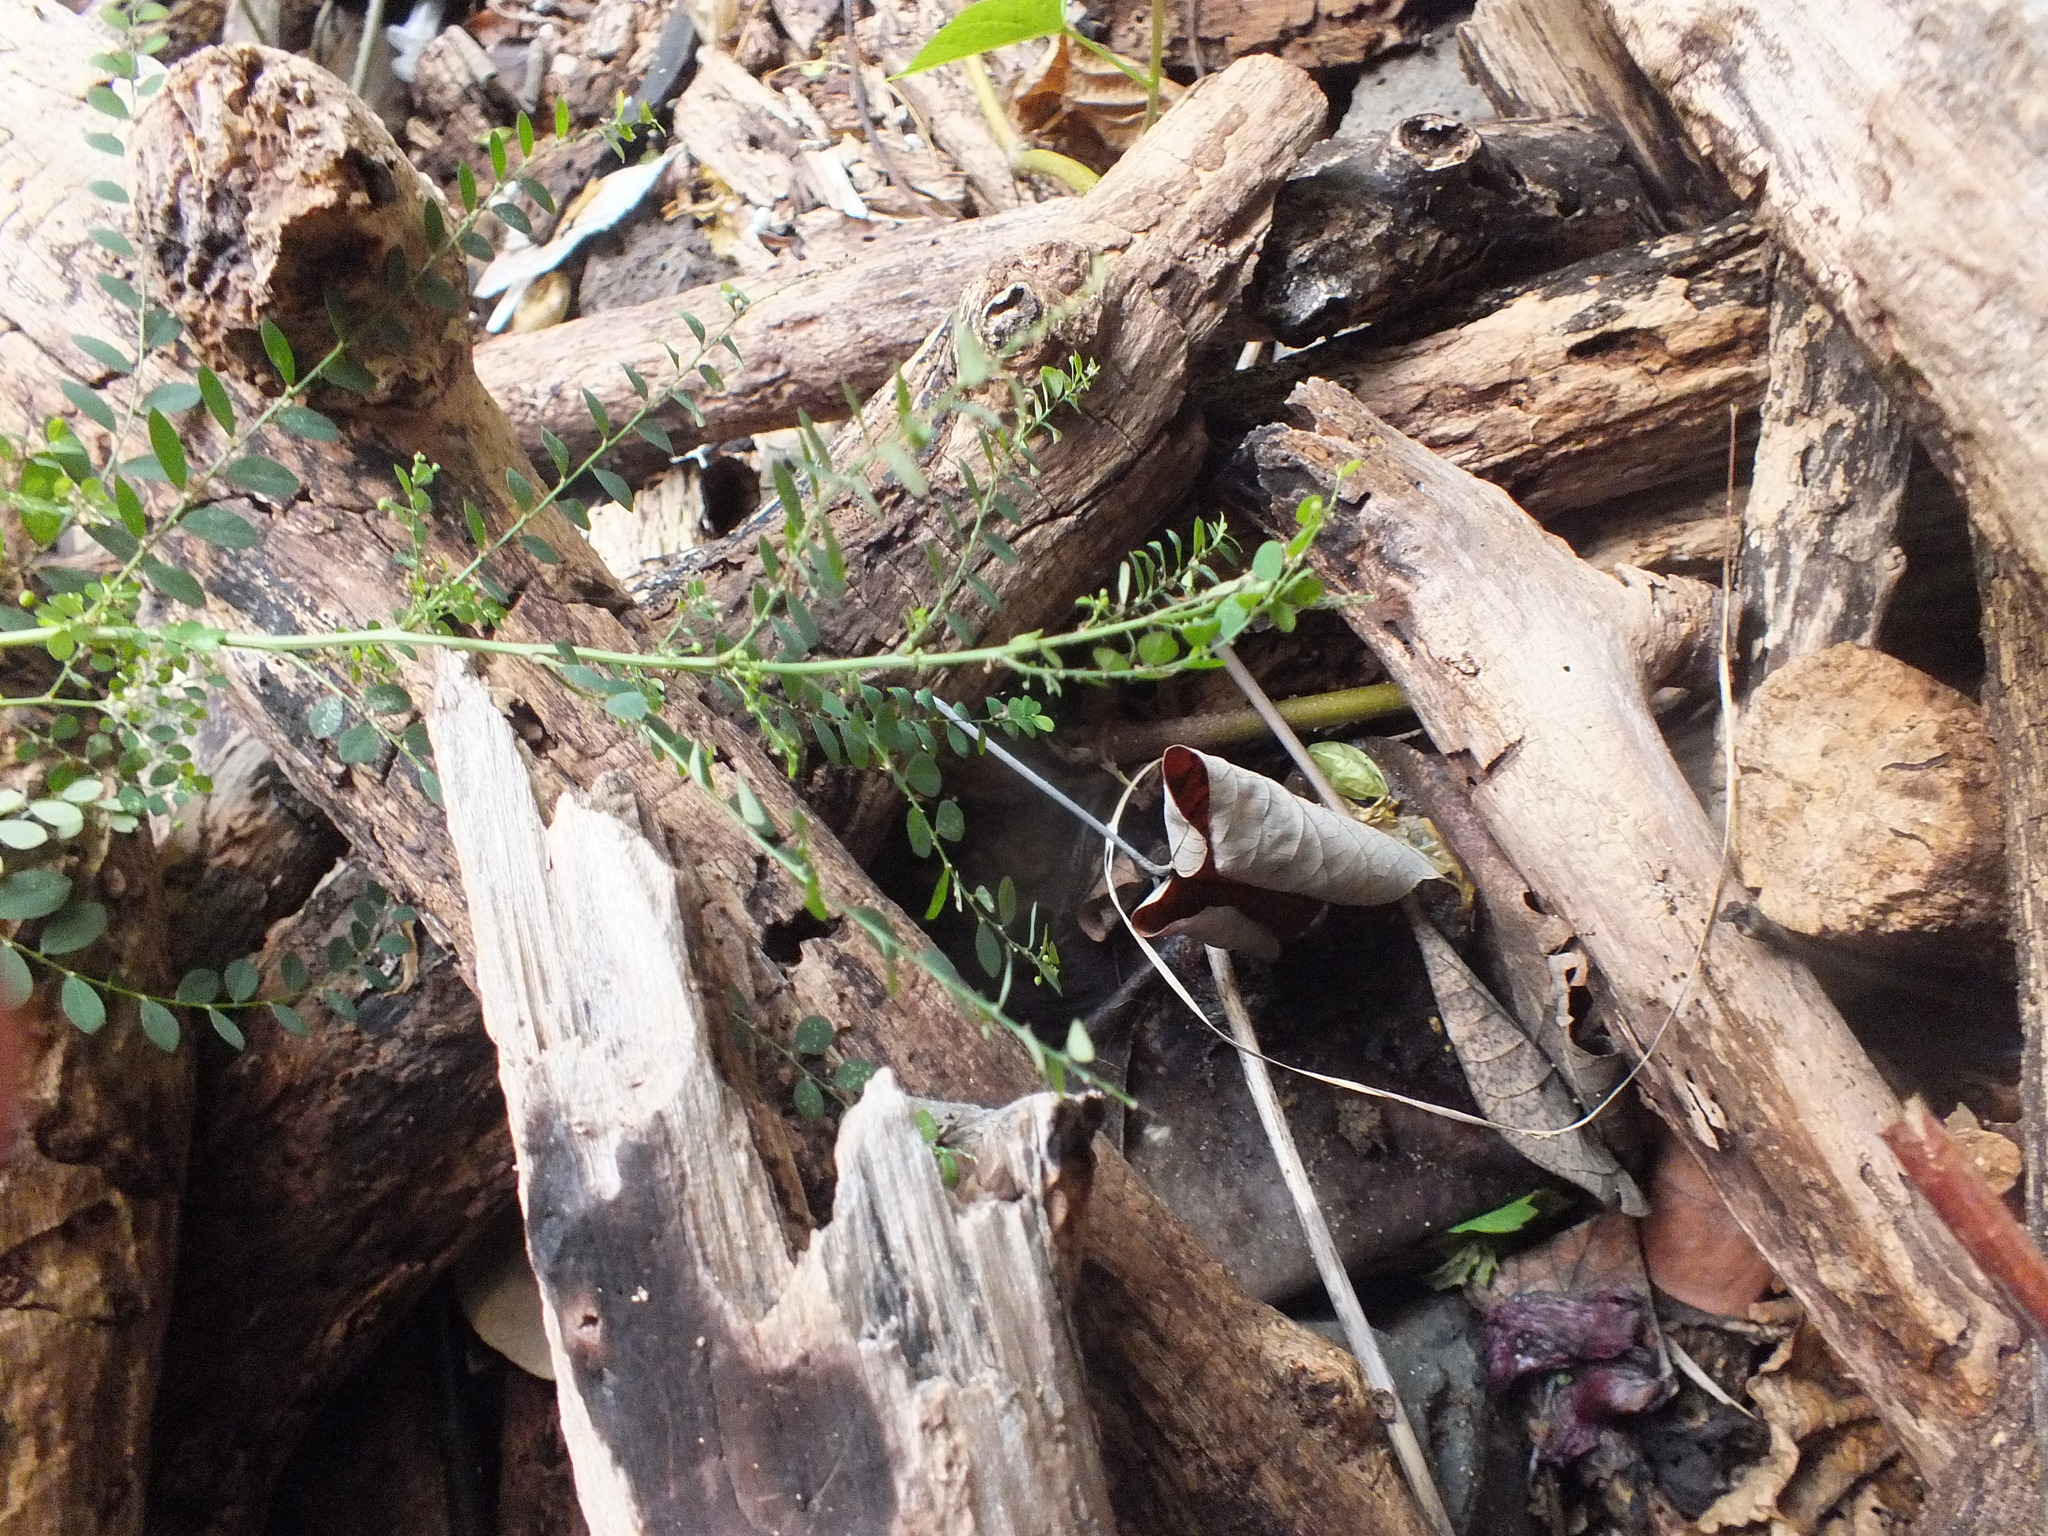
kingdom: Plantae
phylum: Tracheophyta
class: Magnoliopsida
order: Malpighiales
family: Phyllanthaceae
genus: Phyllanthus
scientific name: Phyllanthus tenellus
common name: Mascarene island leaf-flower
